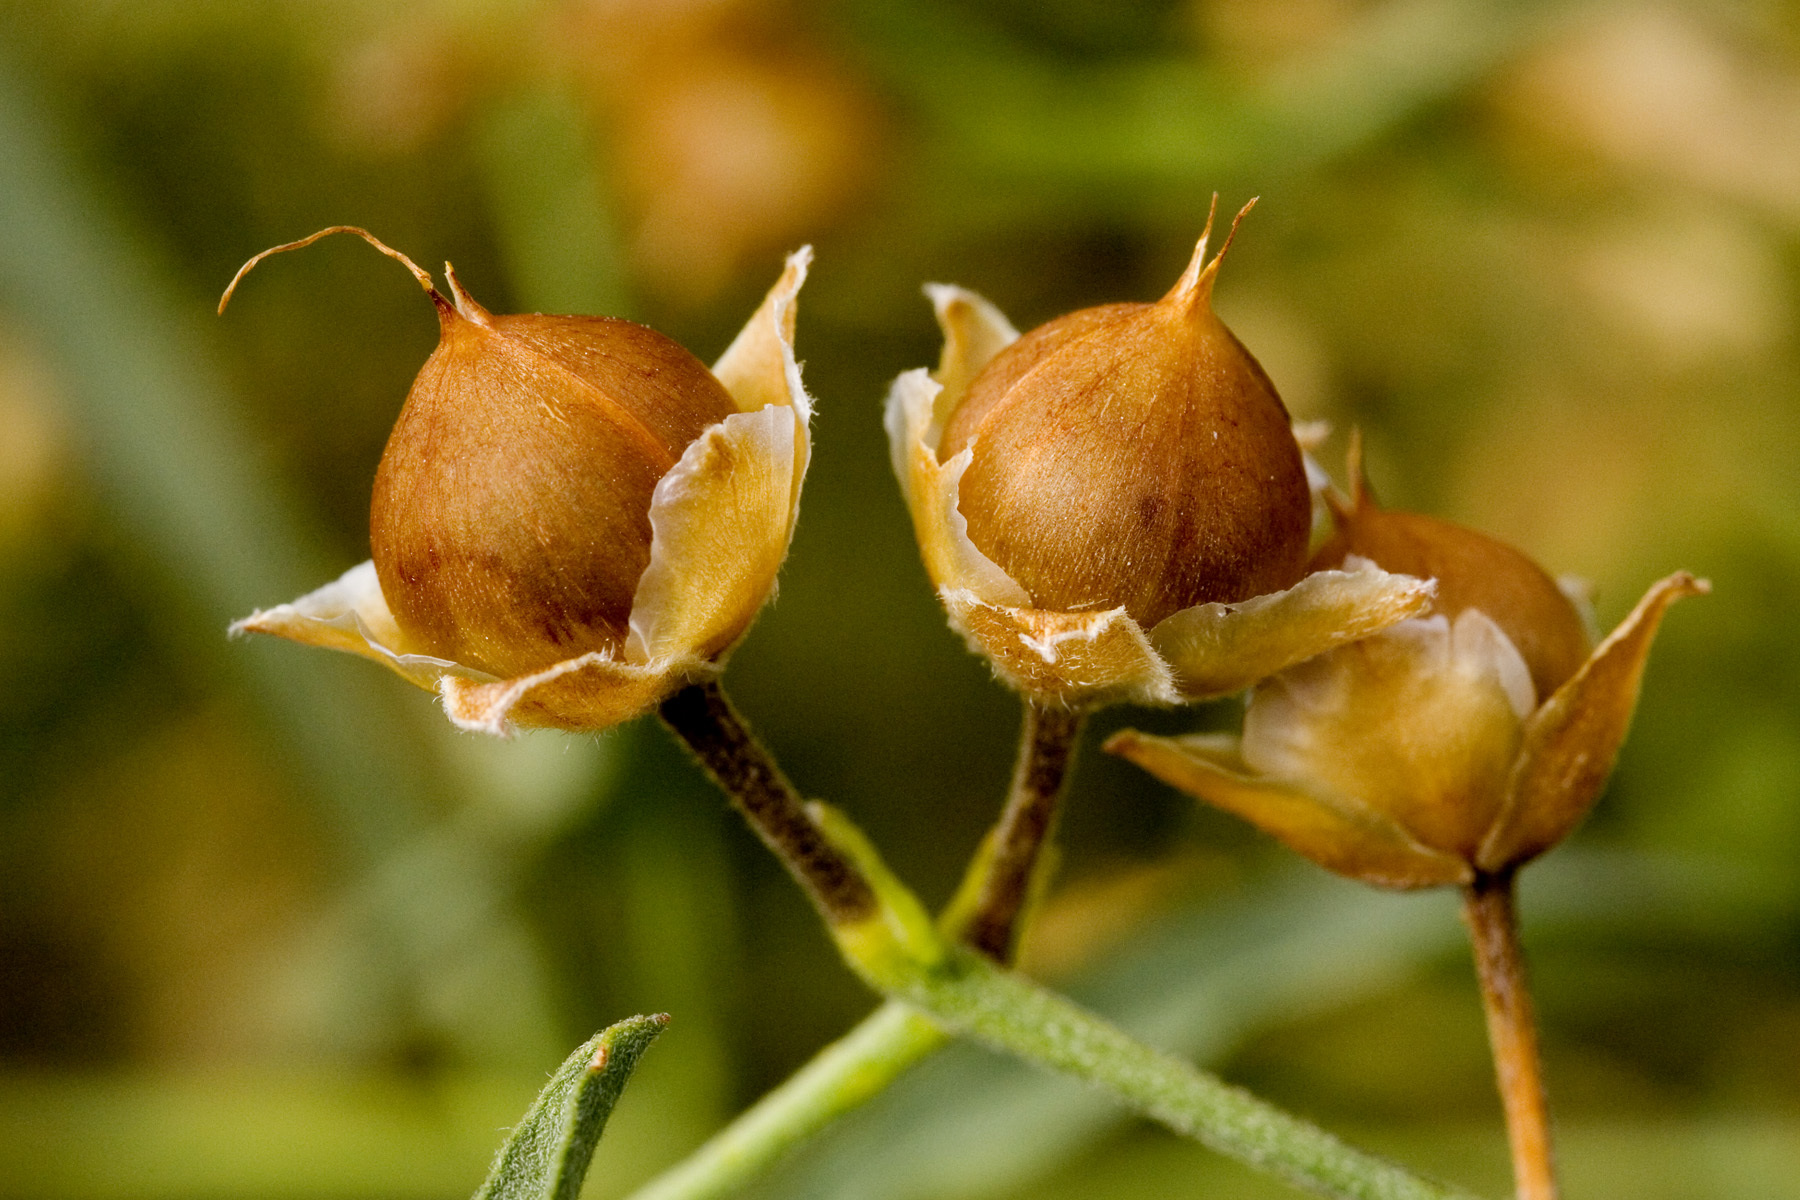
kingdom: Plantae
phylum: Tracheophyta
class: Magnoliopsida
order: Solanales
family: Convolvulaceae
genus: Convolvulus
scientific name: Convolvulus equitans
